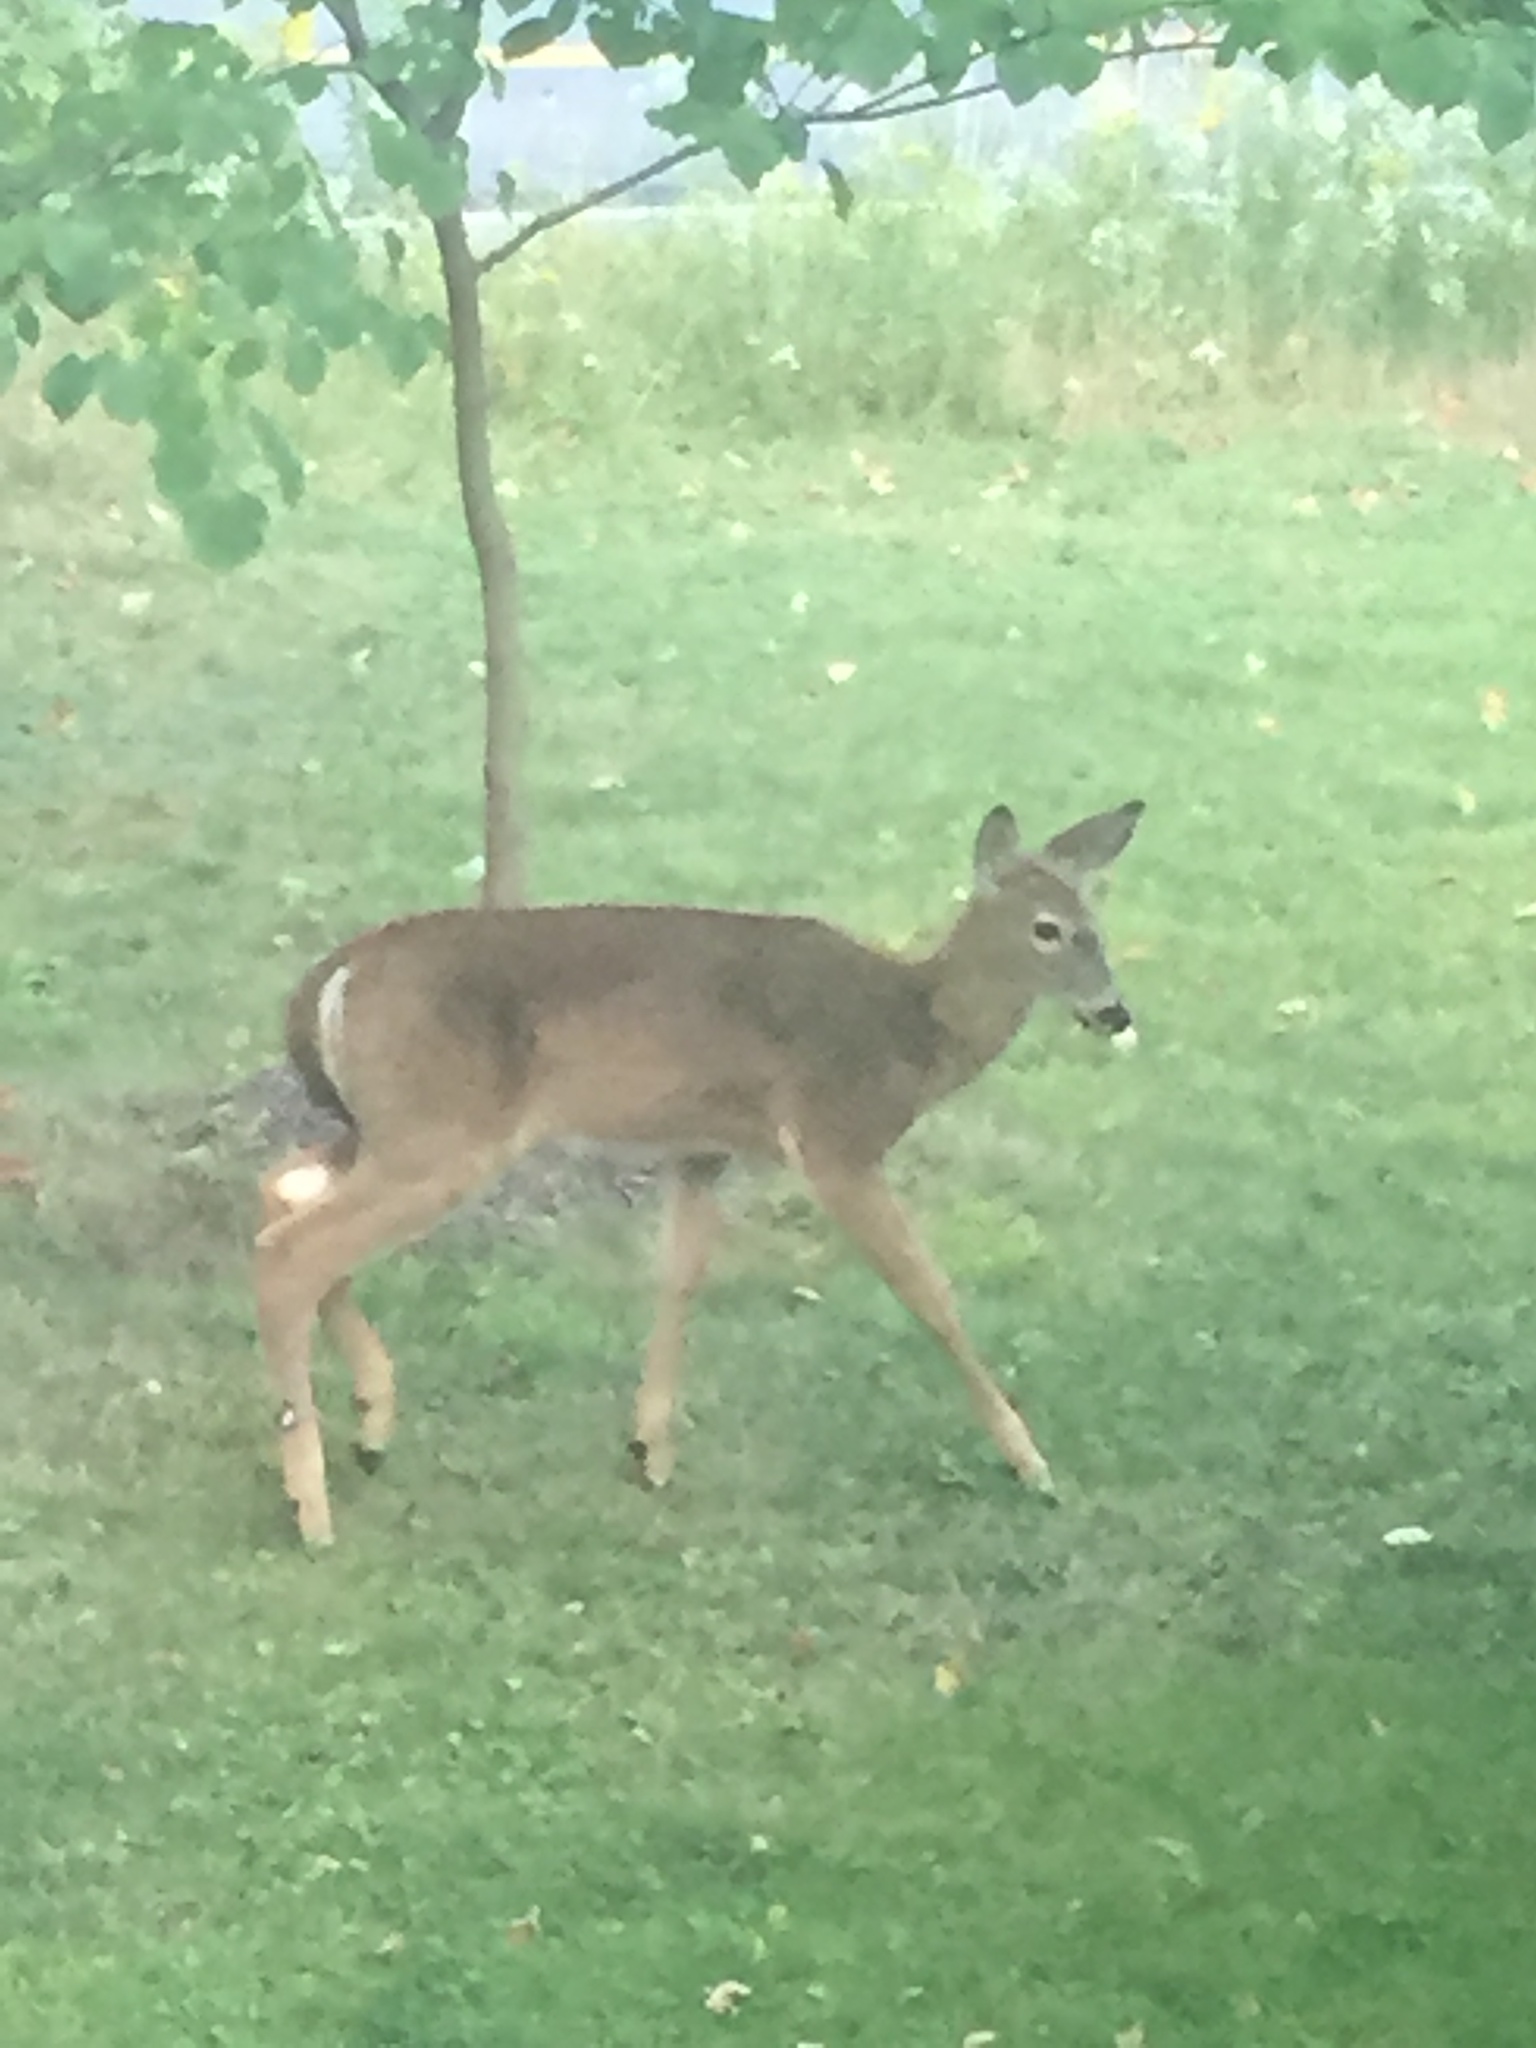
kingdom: Animalia
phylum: Chordata
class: Mammalia
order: Artiodactyla
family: Cervidae
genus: Odocoileus
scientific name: Odocoileus virginianus
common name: White-tailed deer
